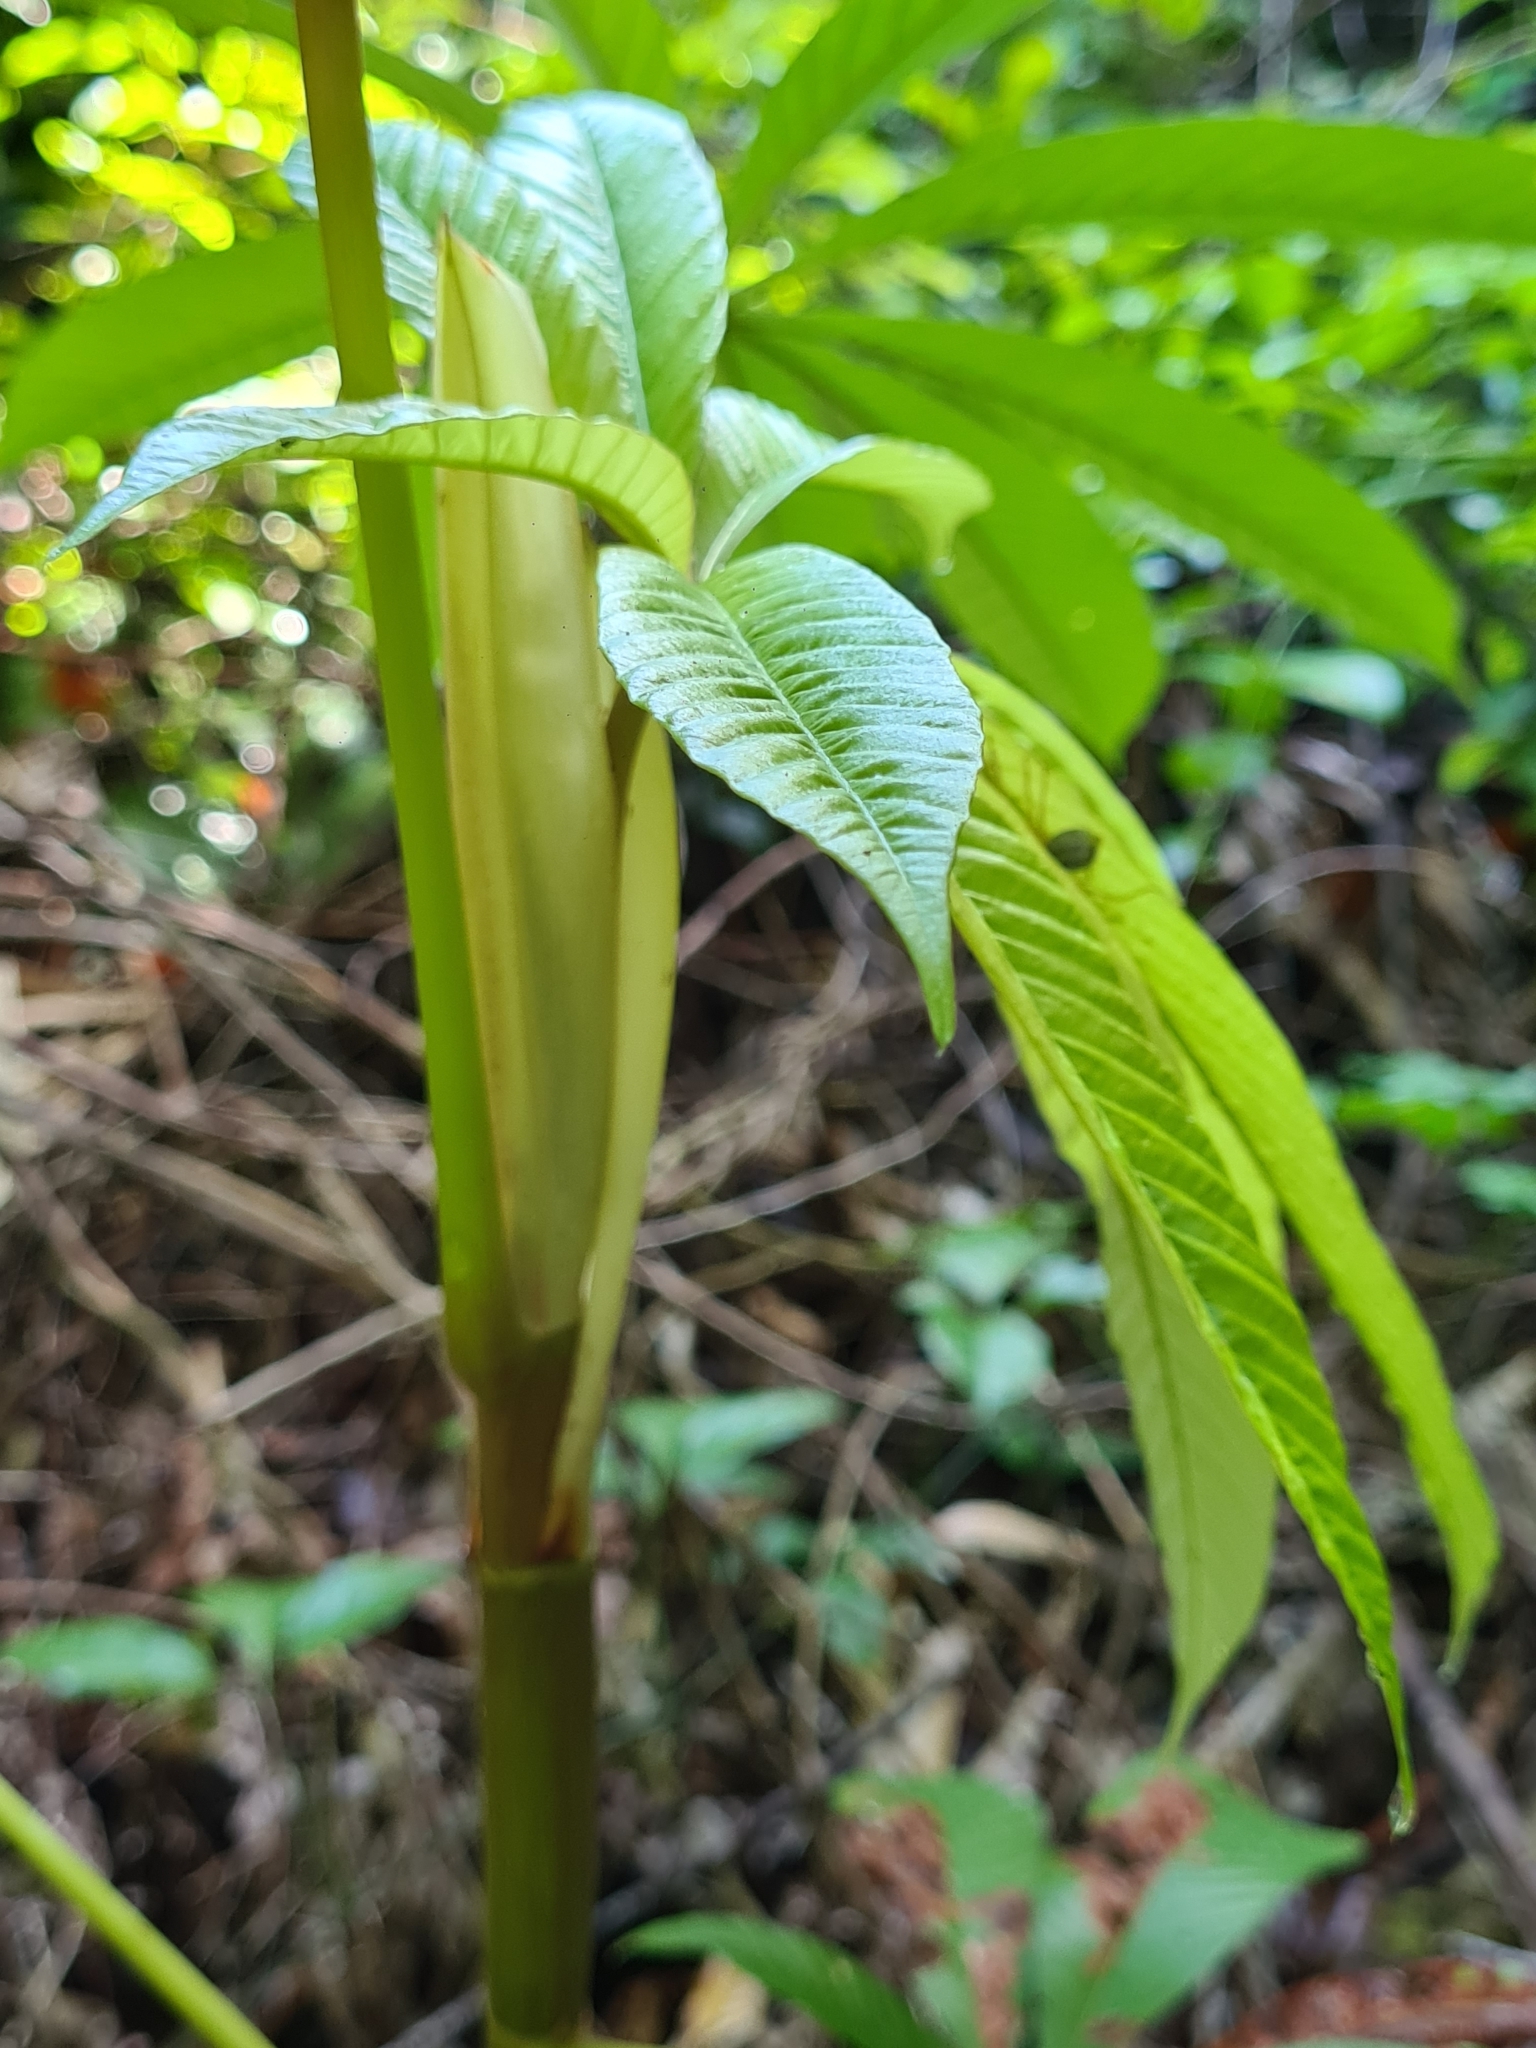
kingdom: Plantae
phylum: Tracheophyta
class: Magnoliopsida
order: Rosales
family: Urticaceae
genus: Cecropia
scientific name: Cecropia sciadophylla
